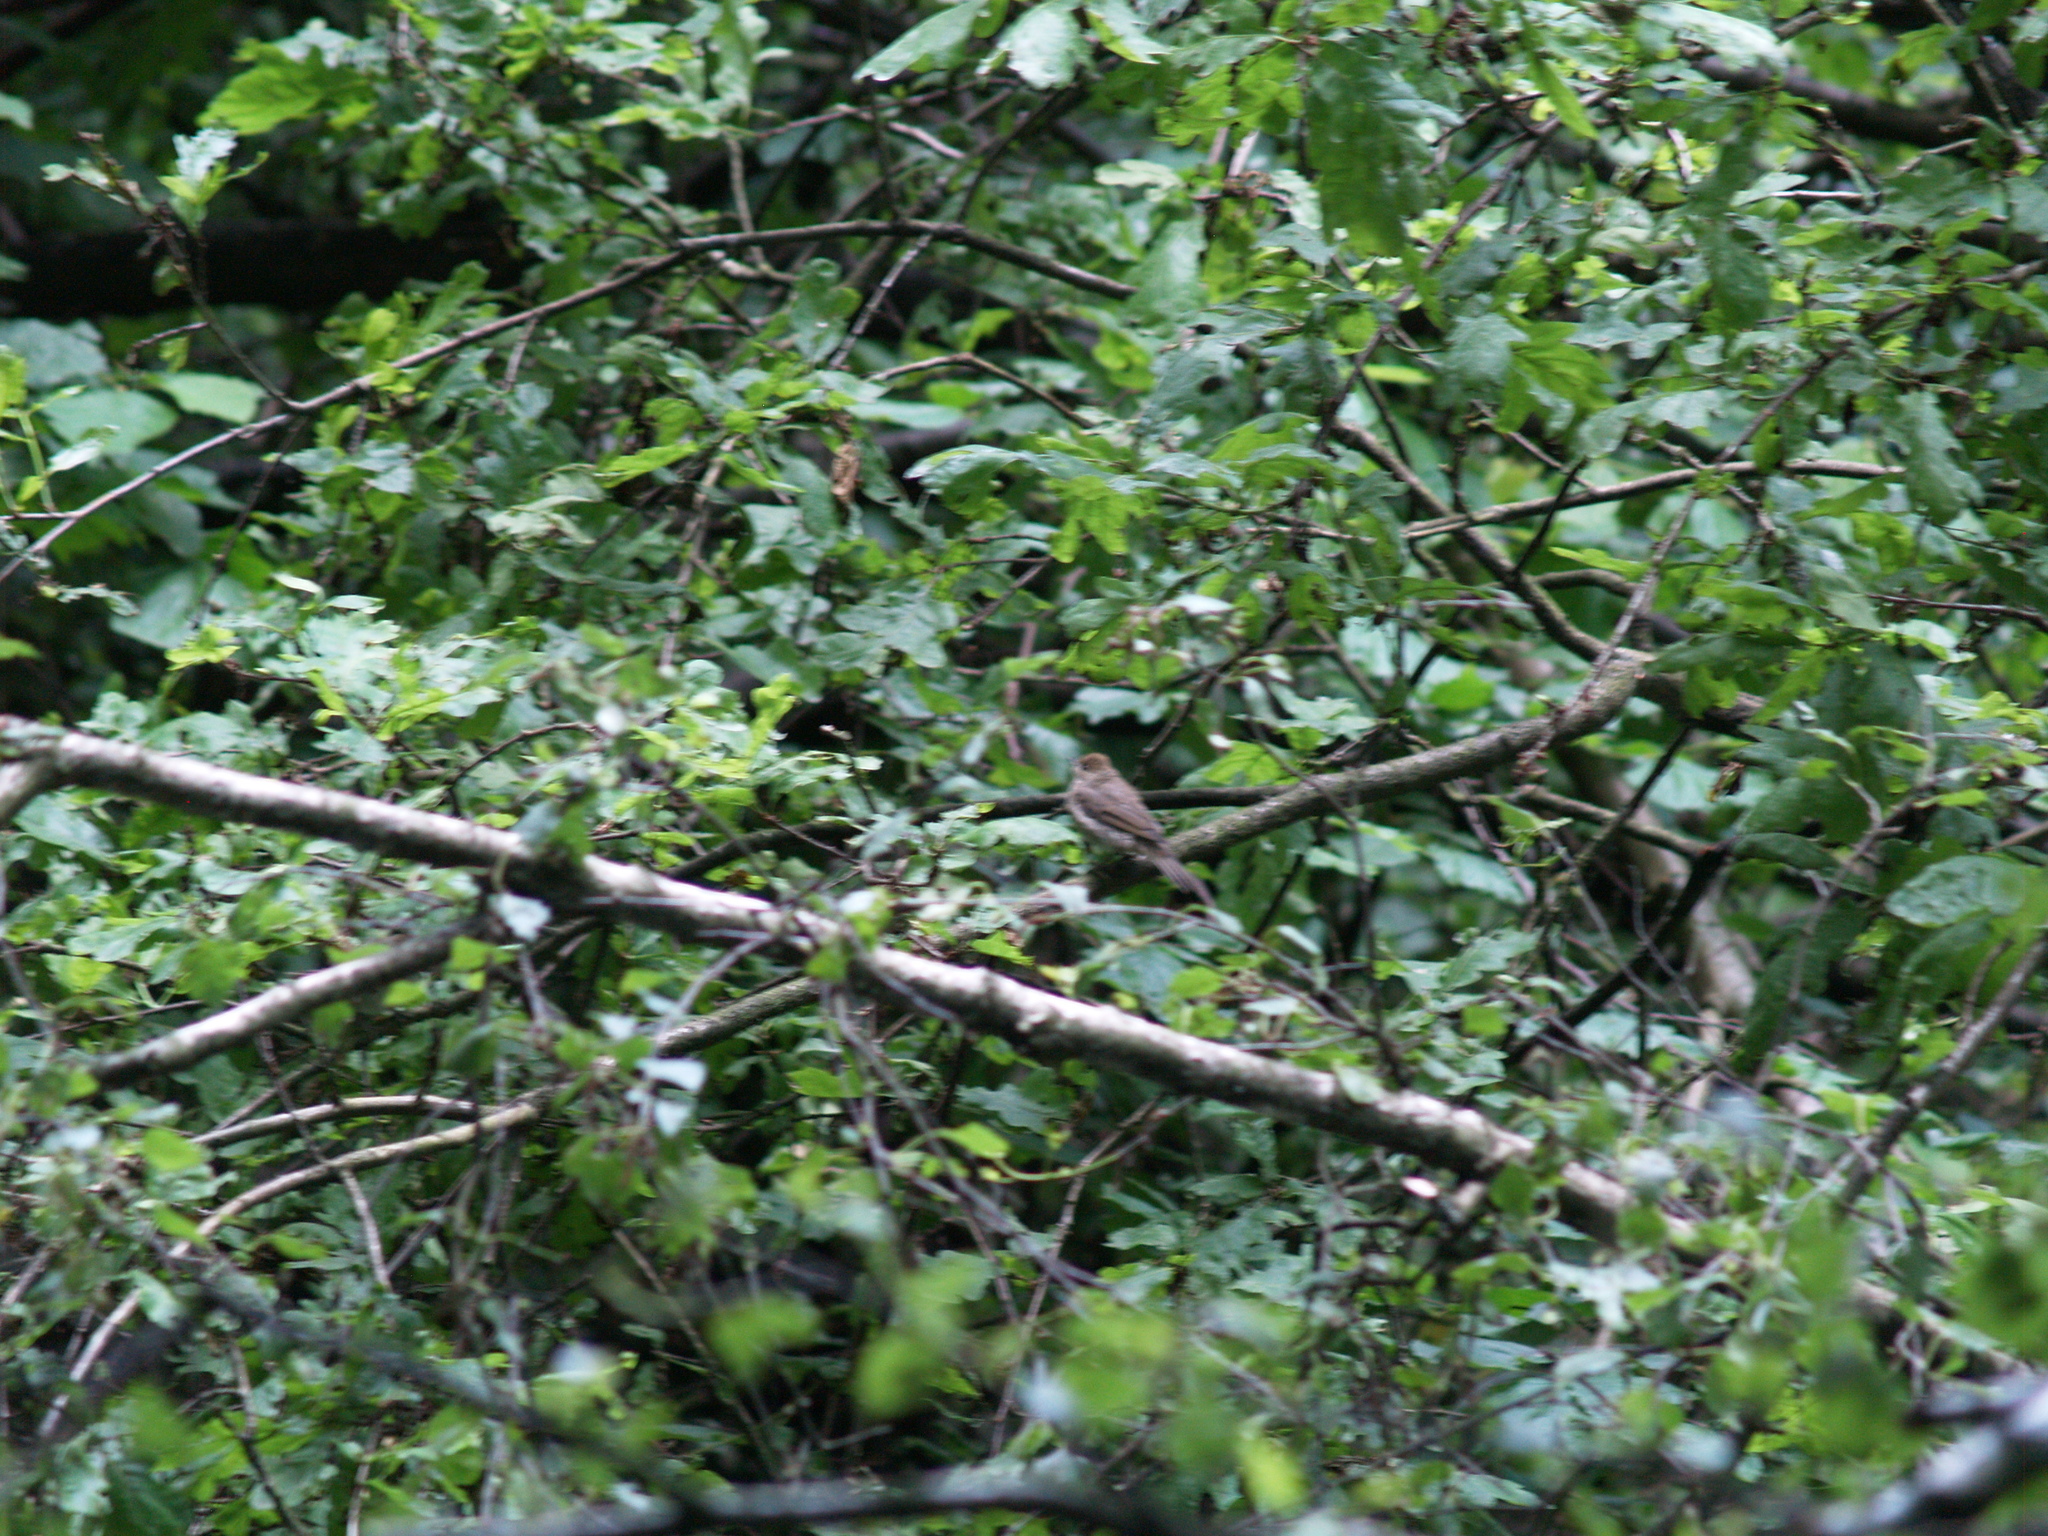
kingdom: Animalia
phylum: Chordata
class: Aves
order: Passeriformes
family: Sylviidae
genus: Sylvia
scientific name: Sylvia atricapilla
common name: Eurasian blackcap
